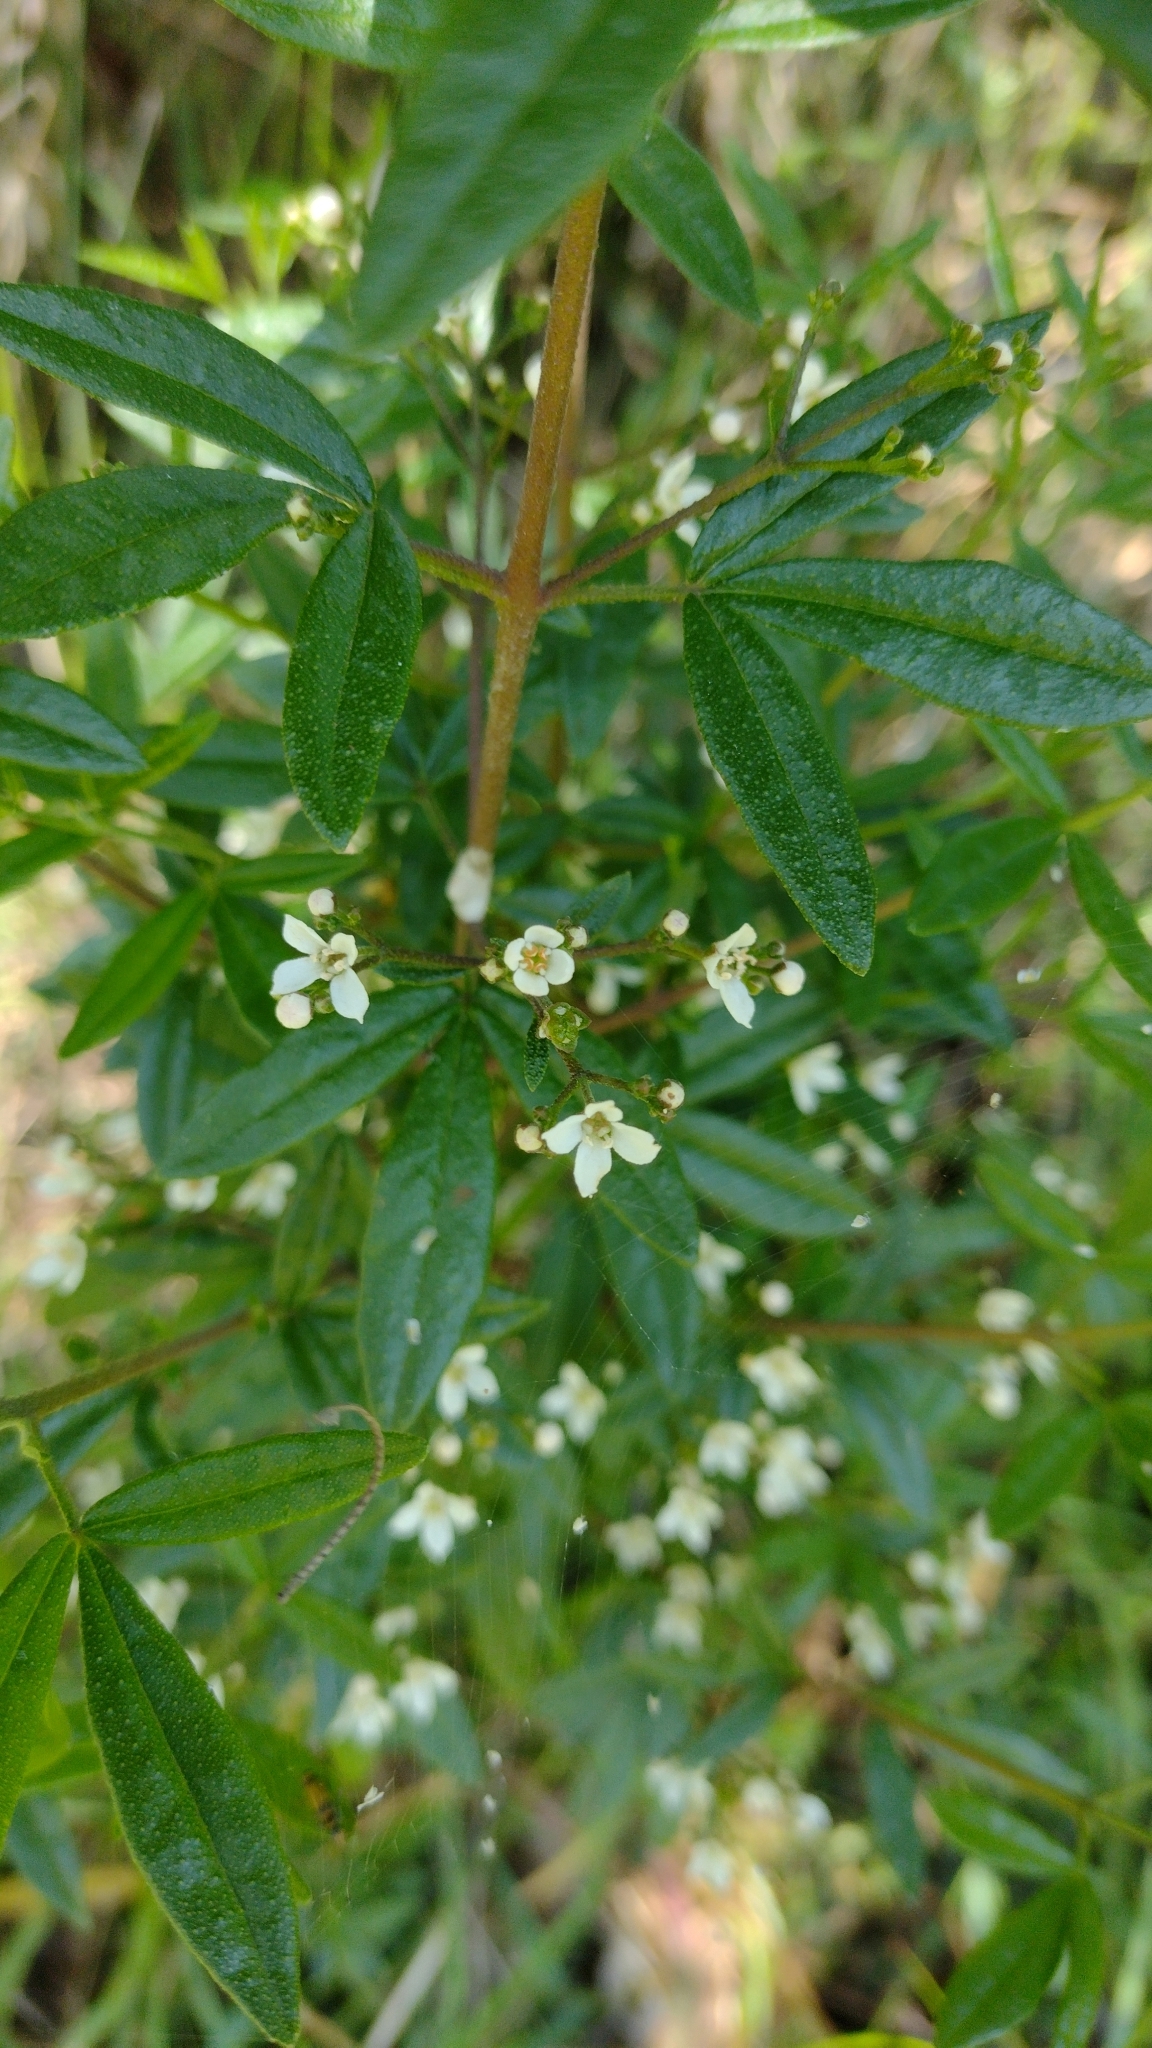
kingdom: Plantae
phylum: Tracheophyta
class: Magnoliopsida
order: Sapindales
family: Rutaceae
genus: Zieria
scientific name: Zieria smithii
